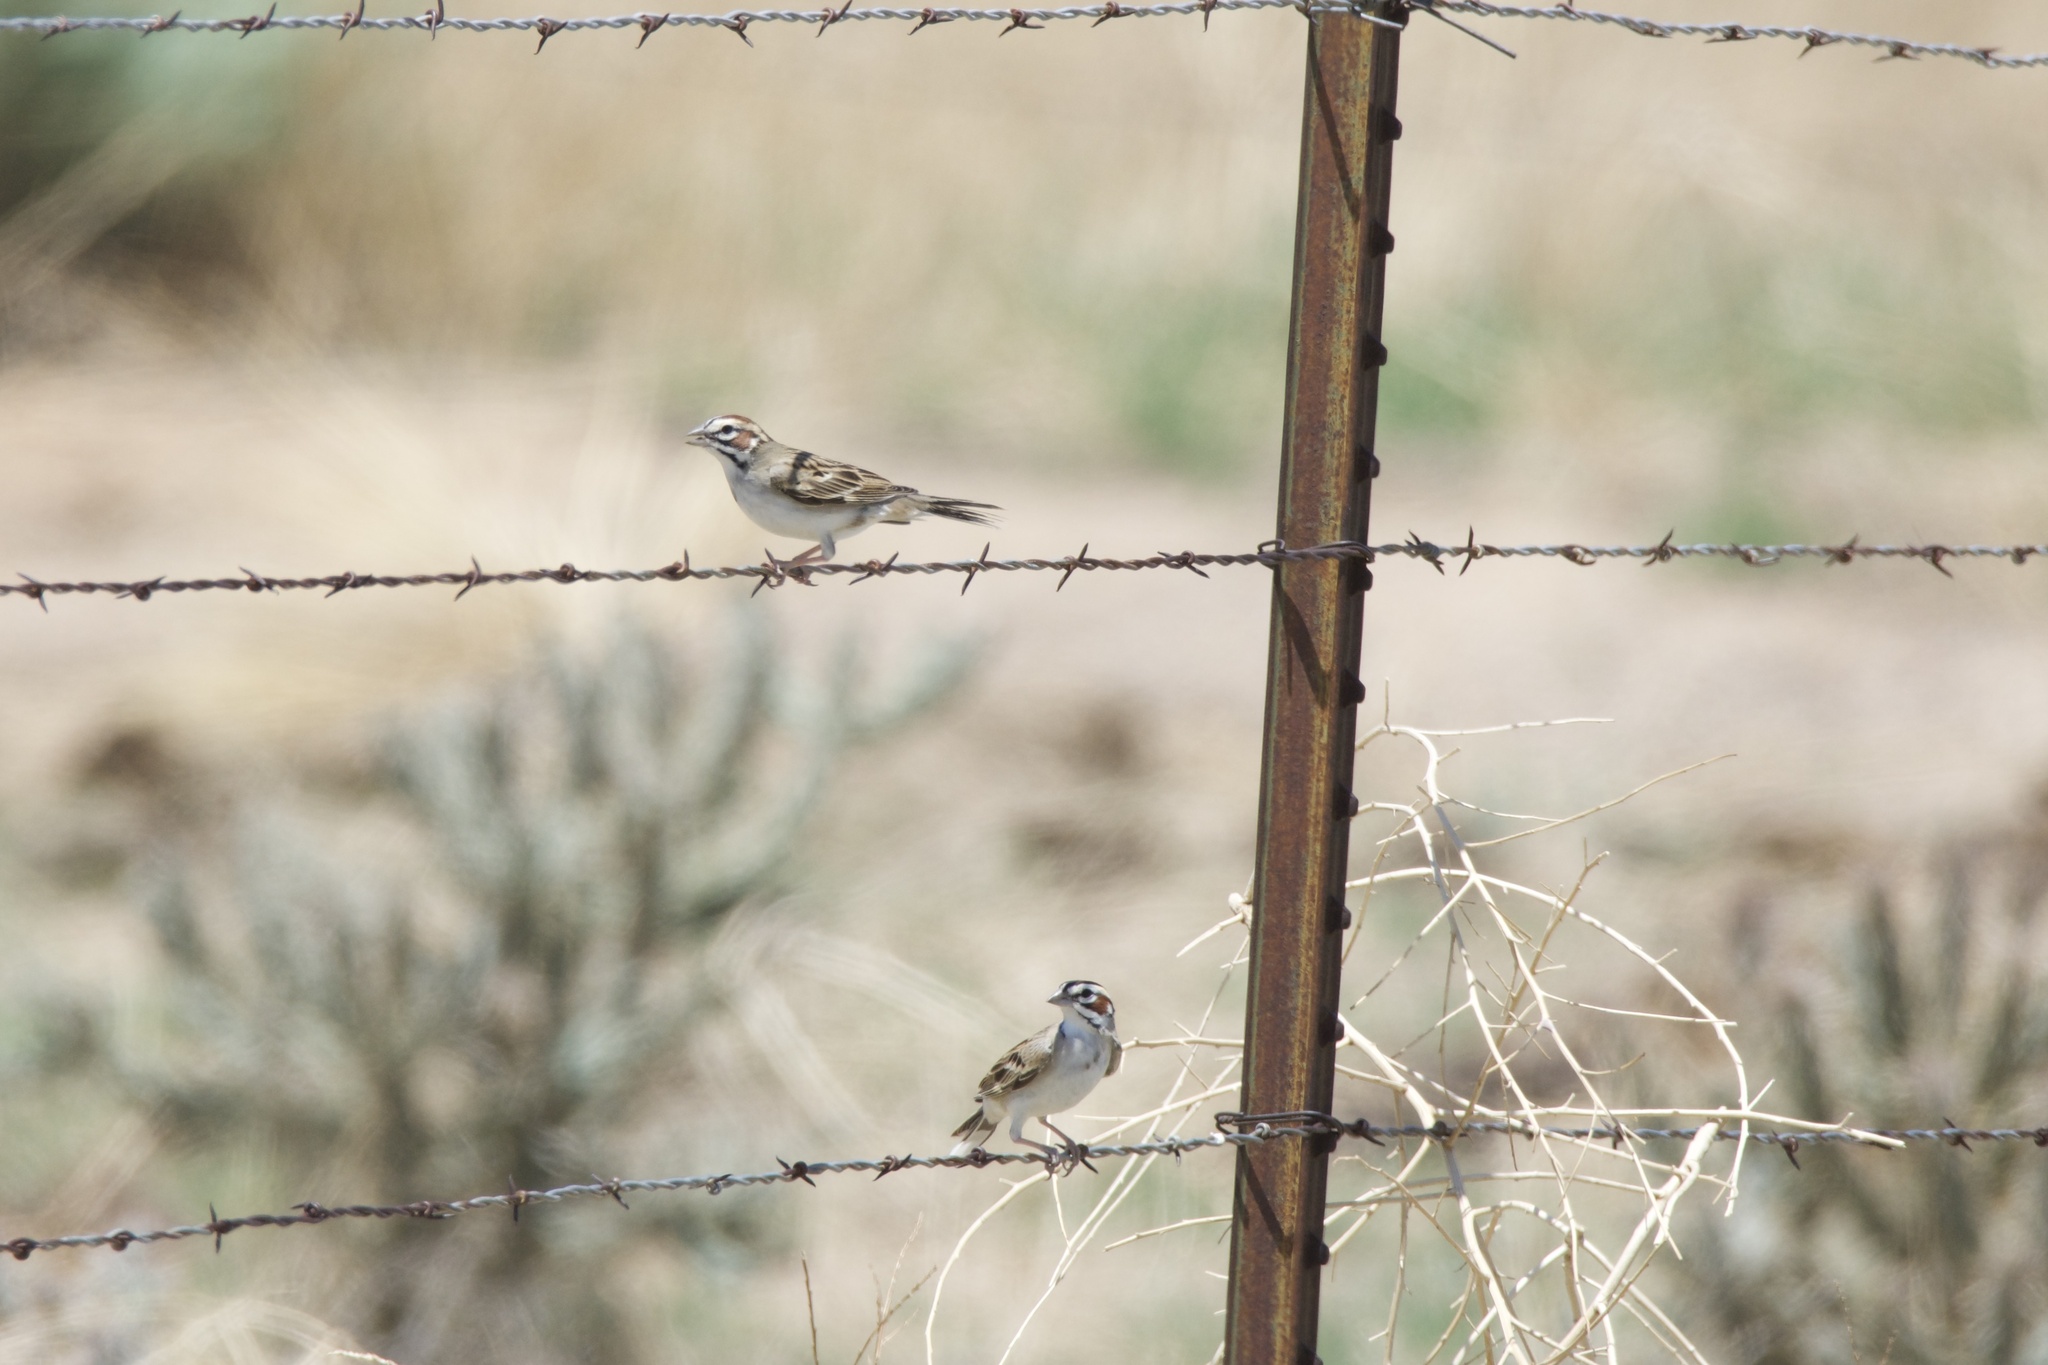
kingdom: Animalia
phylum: Chordata
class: Aves
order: Passeriformes
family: Passerellidae
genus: Chondestes
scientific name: Chondestes grammacus
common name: Lark sparrow
